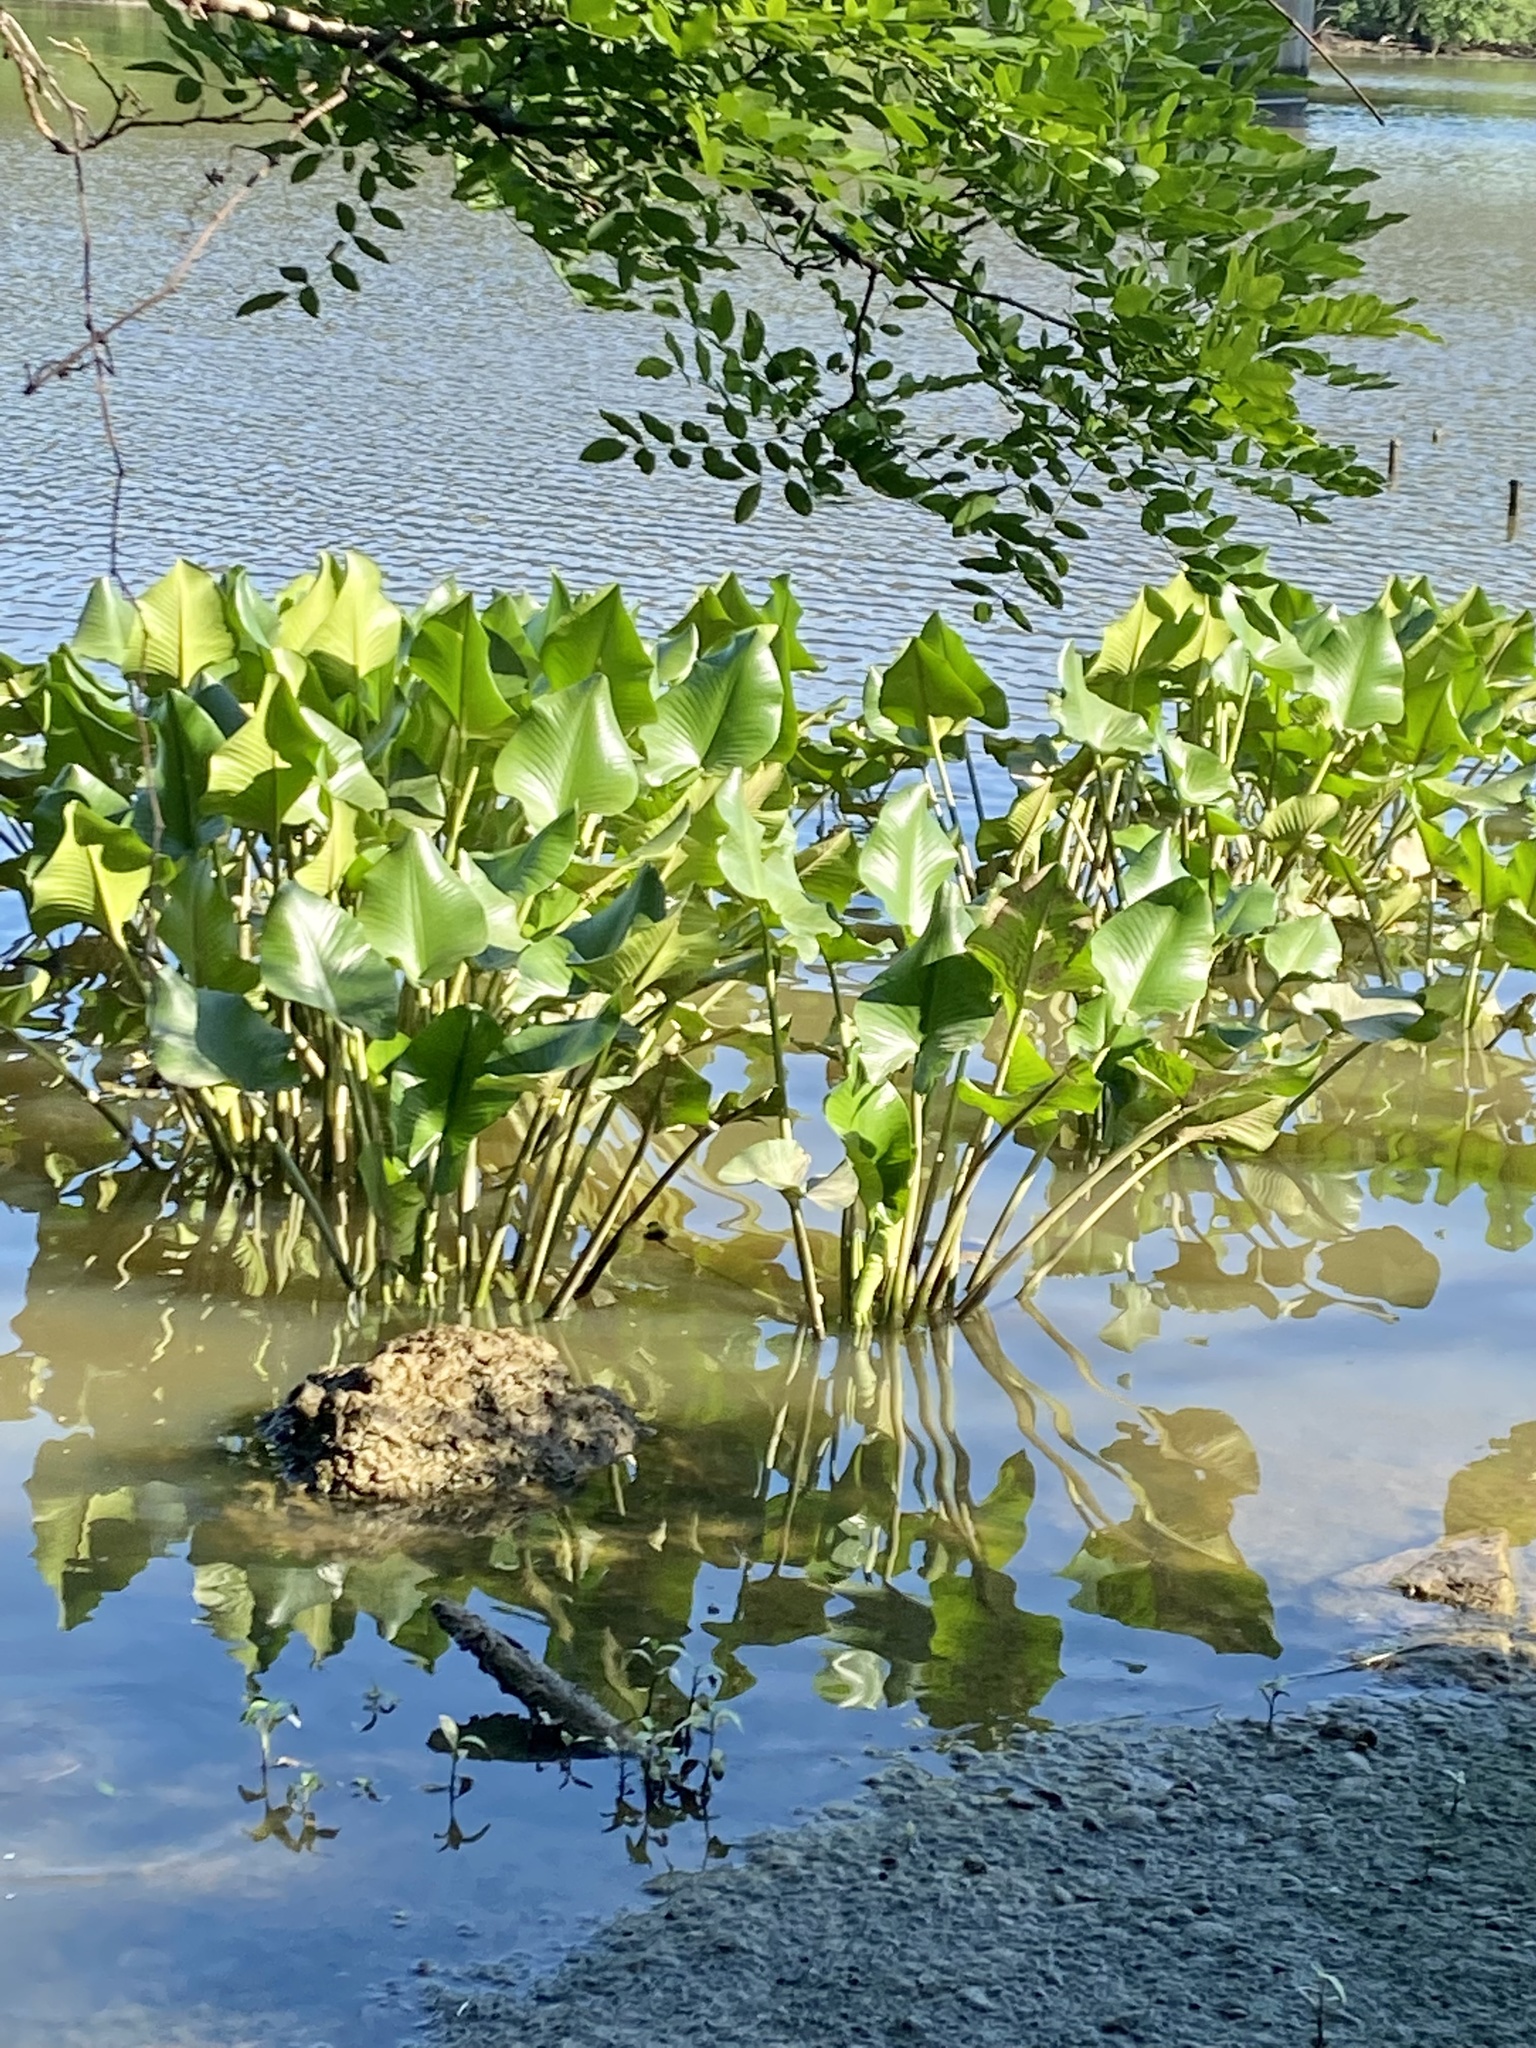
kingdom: Plantae
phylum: Tracheophyta
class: Magnoliopsida
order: Nymphaeales
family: Nymphaeaceae
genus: Nuphar
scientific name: Nuphar advena
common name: Spatter-dock
